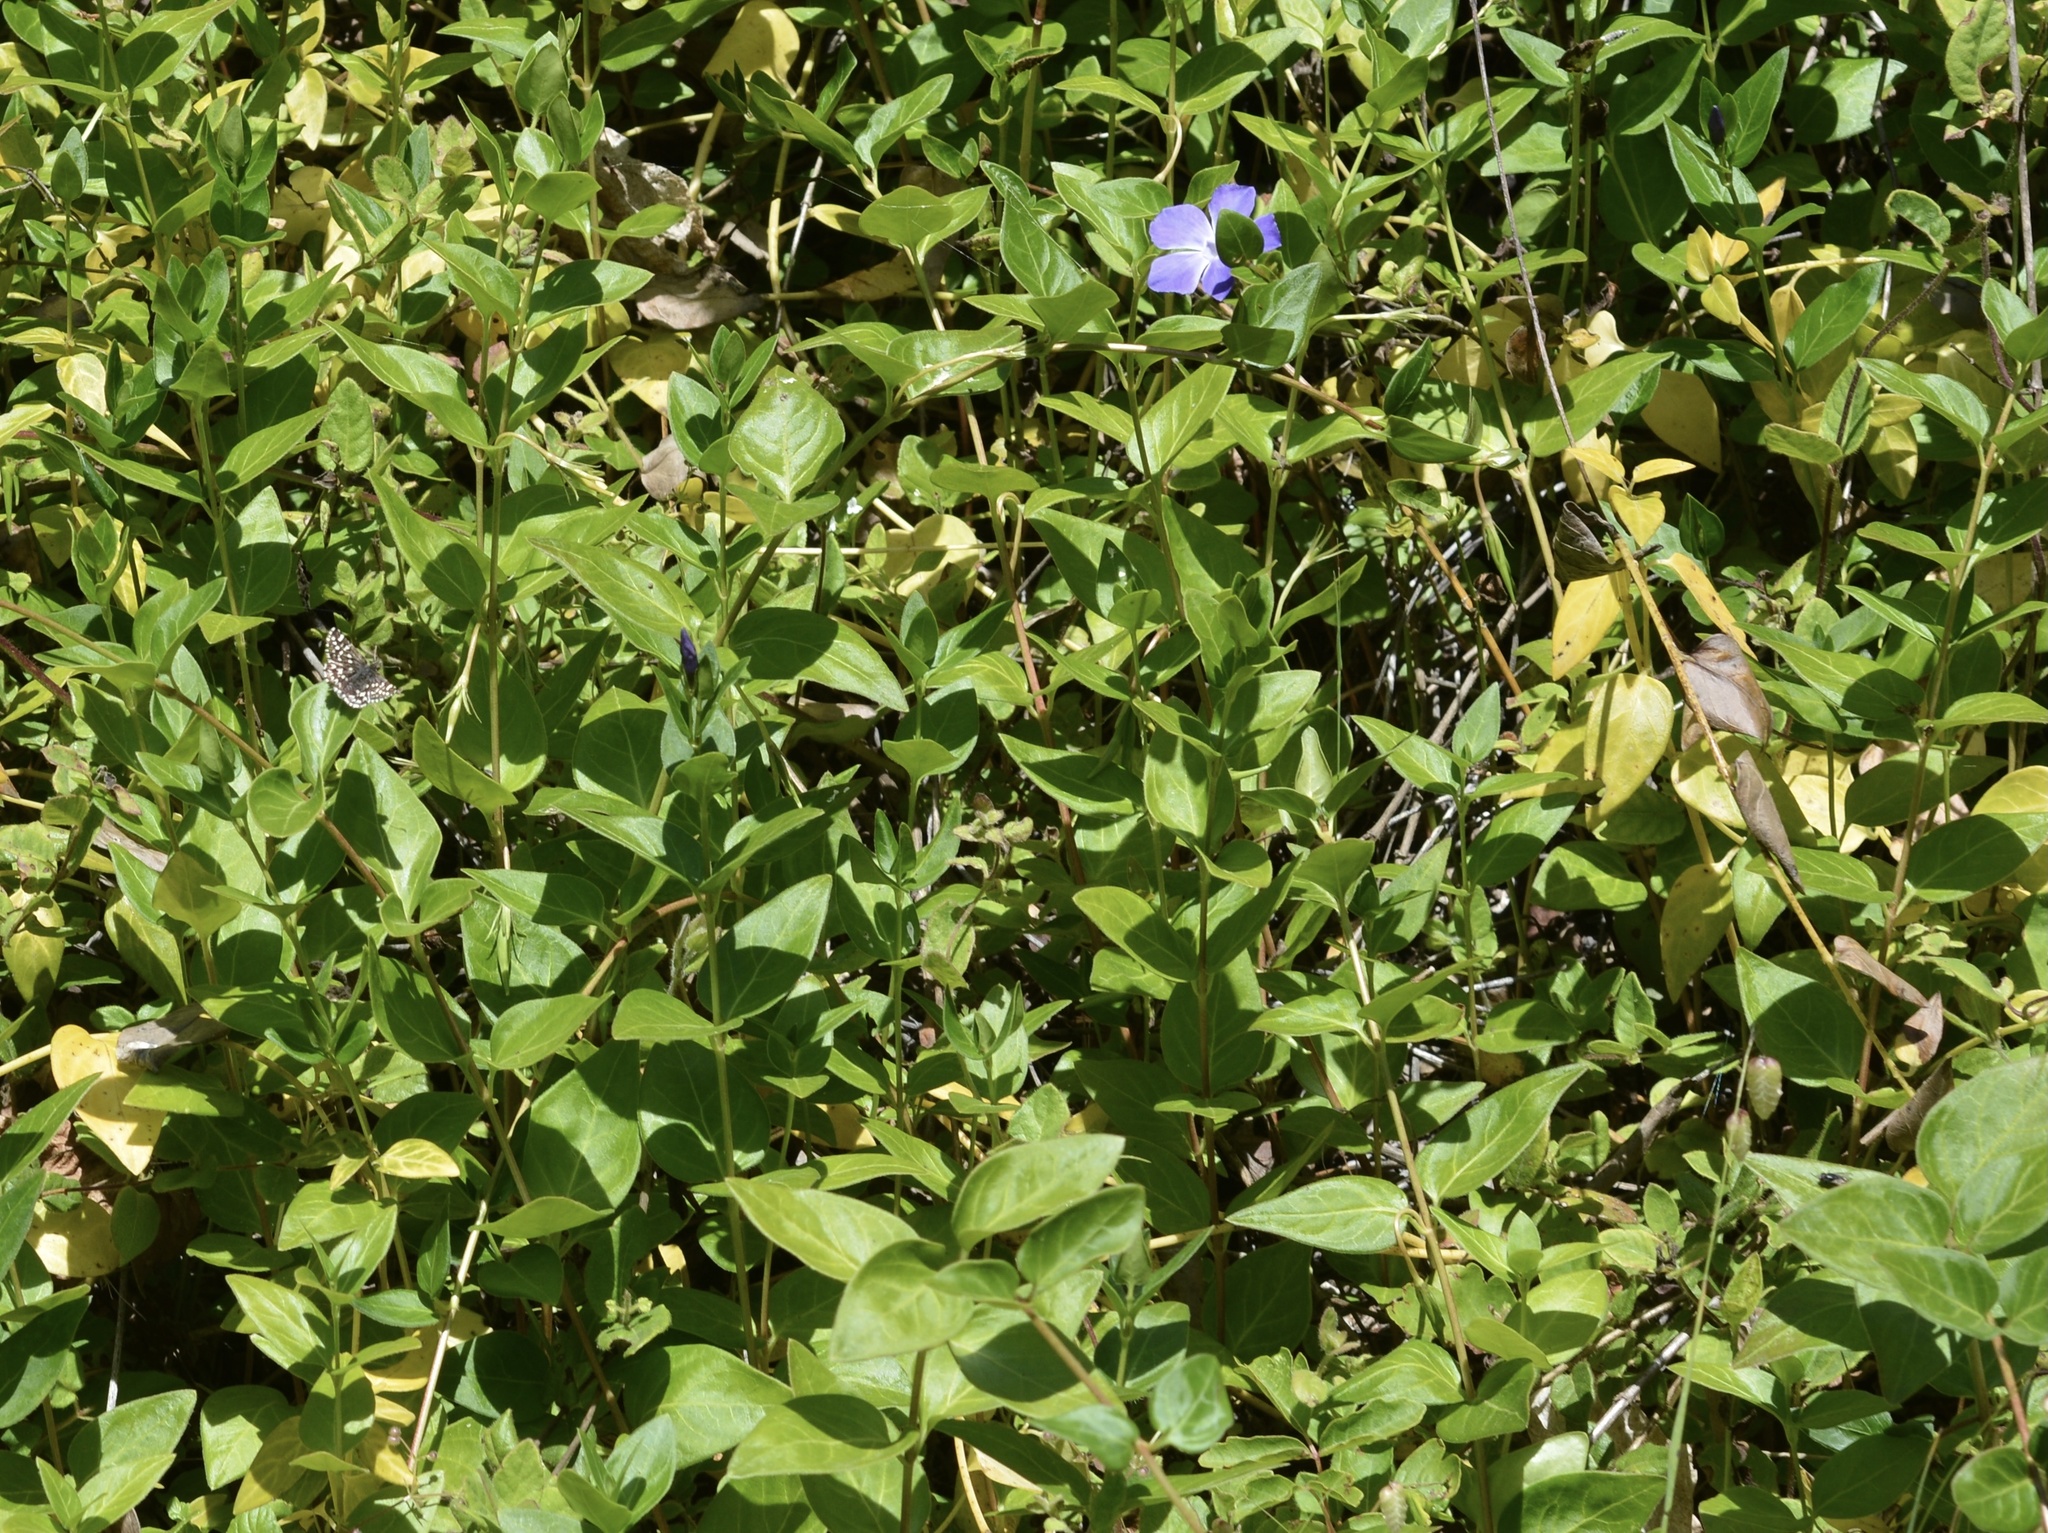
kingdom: Plantae
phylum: Tracheophyta
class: Magnoliopsida
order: Gentianales
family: Apocynaceae
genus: Vinca
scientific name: Vinca major
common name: Greater periwinkle
